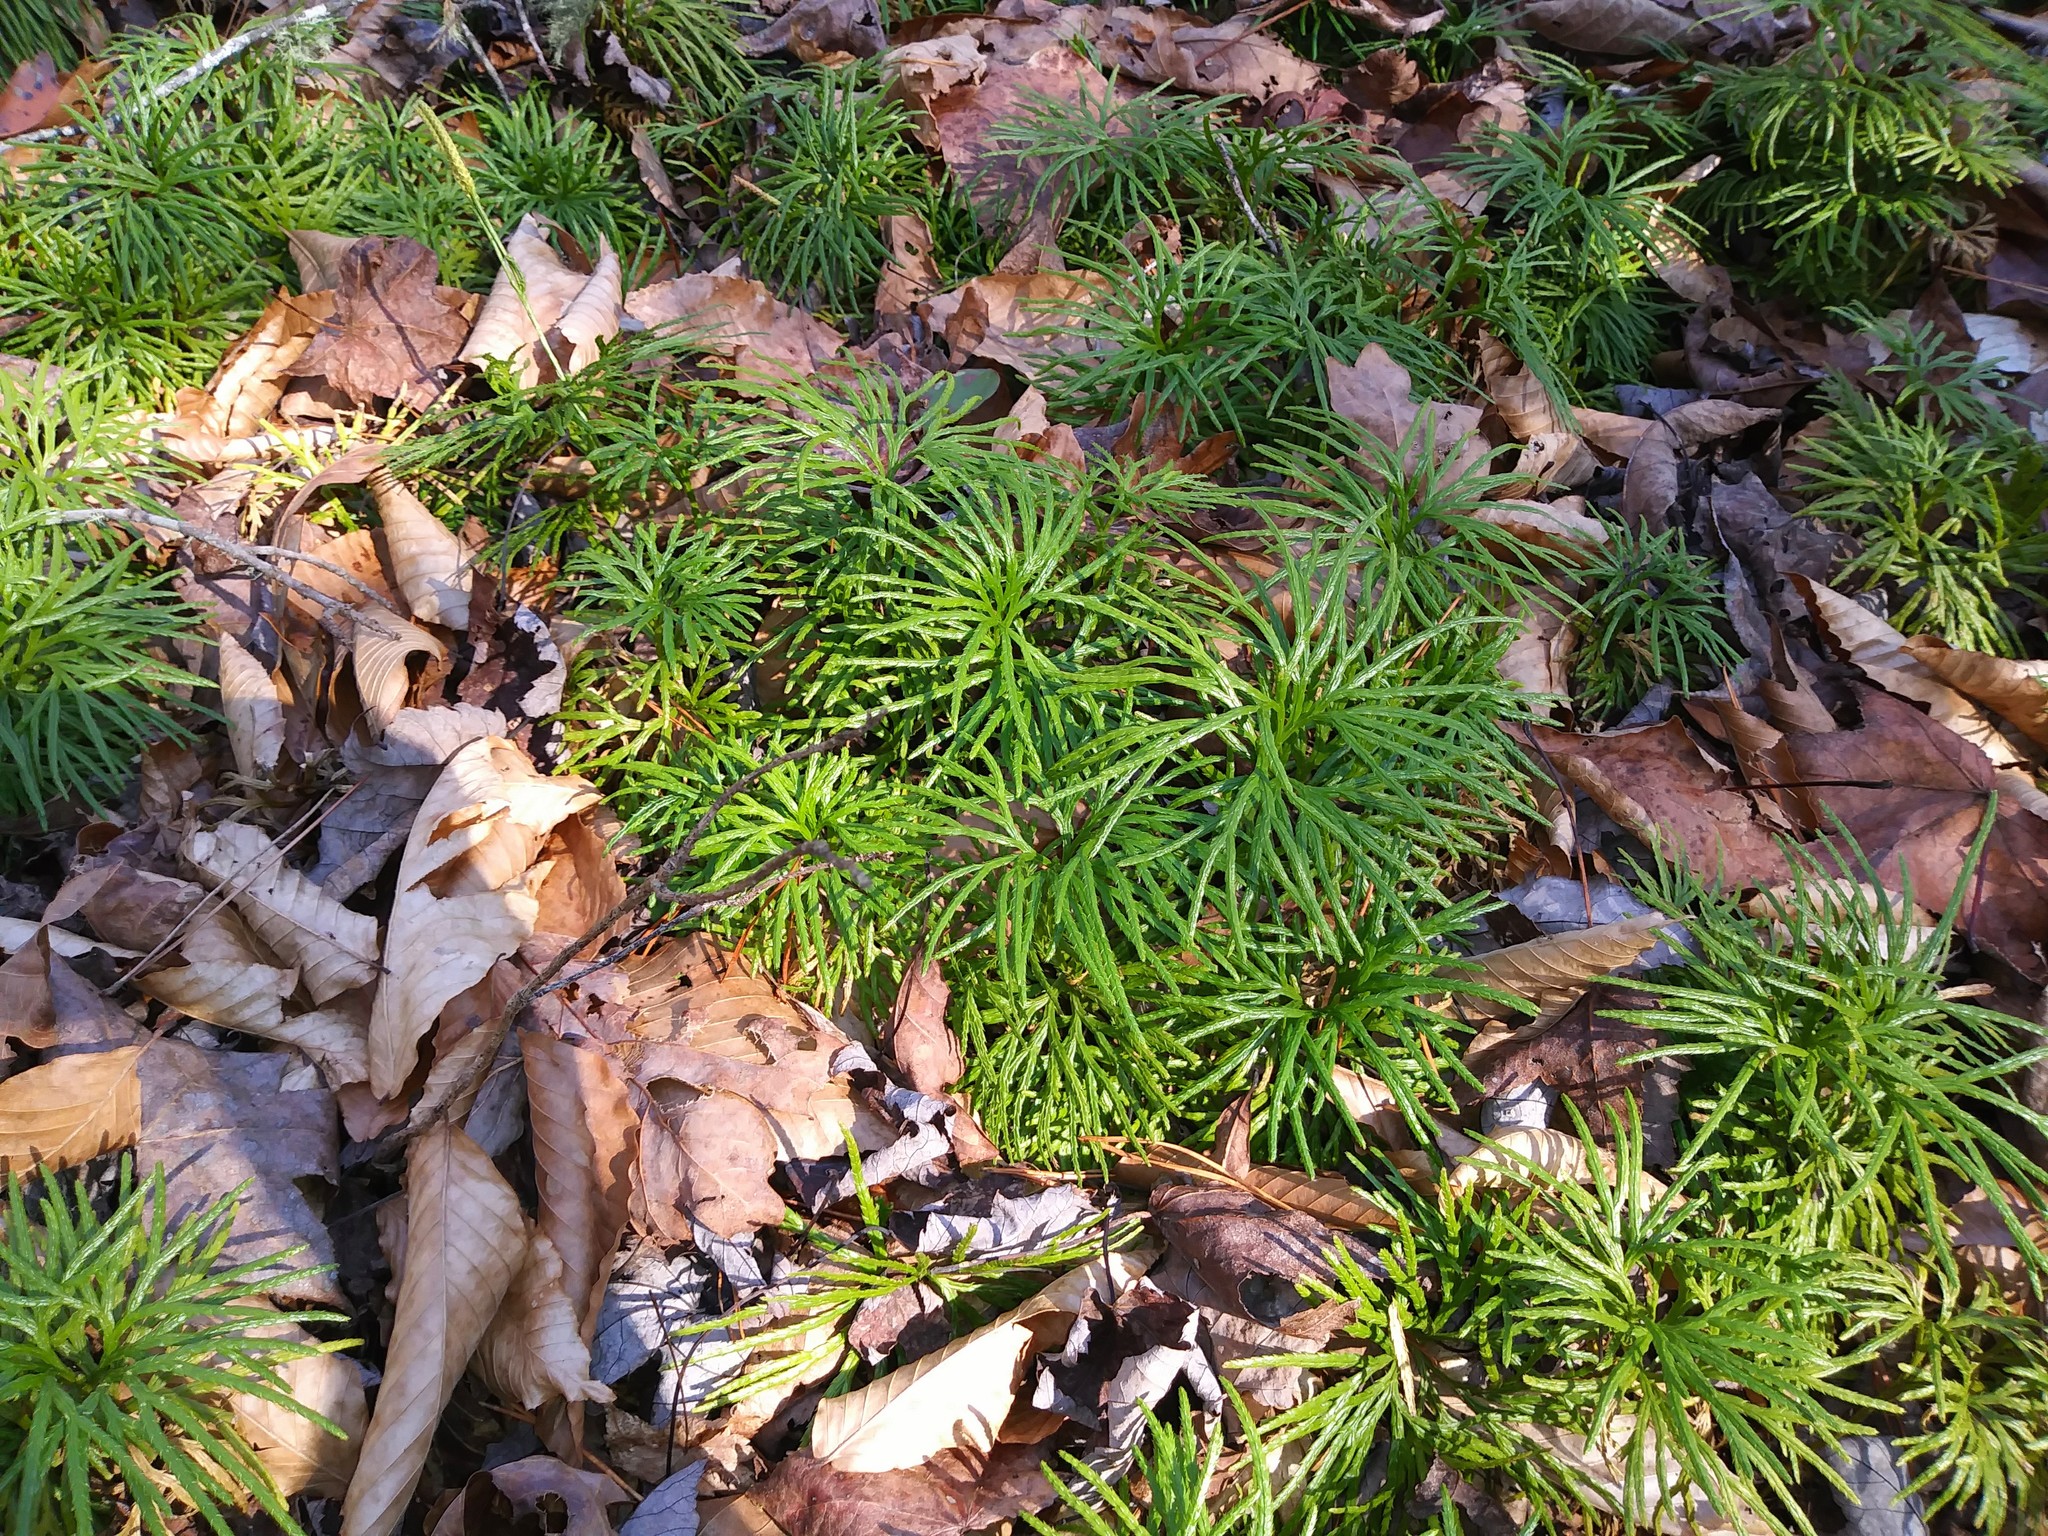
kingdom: Plantae
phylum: Tracheophyta
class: Lycopodiopsida
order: Lycopodiales
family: Lycopodiaceae
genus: Diphasiastrum
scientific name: Diphasiastrum digitatum
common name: Southern running-pine
